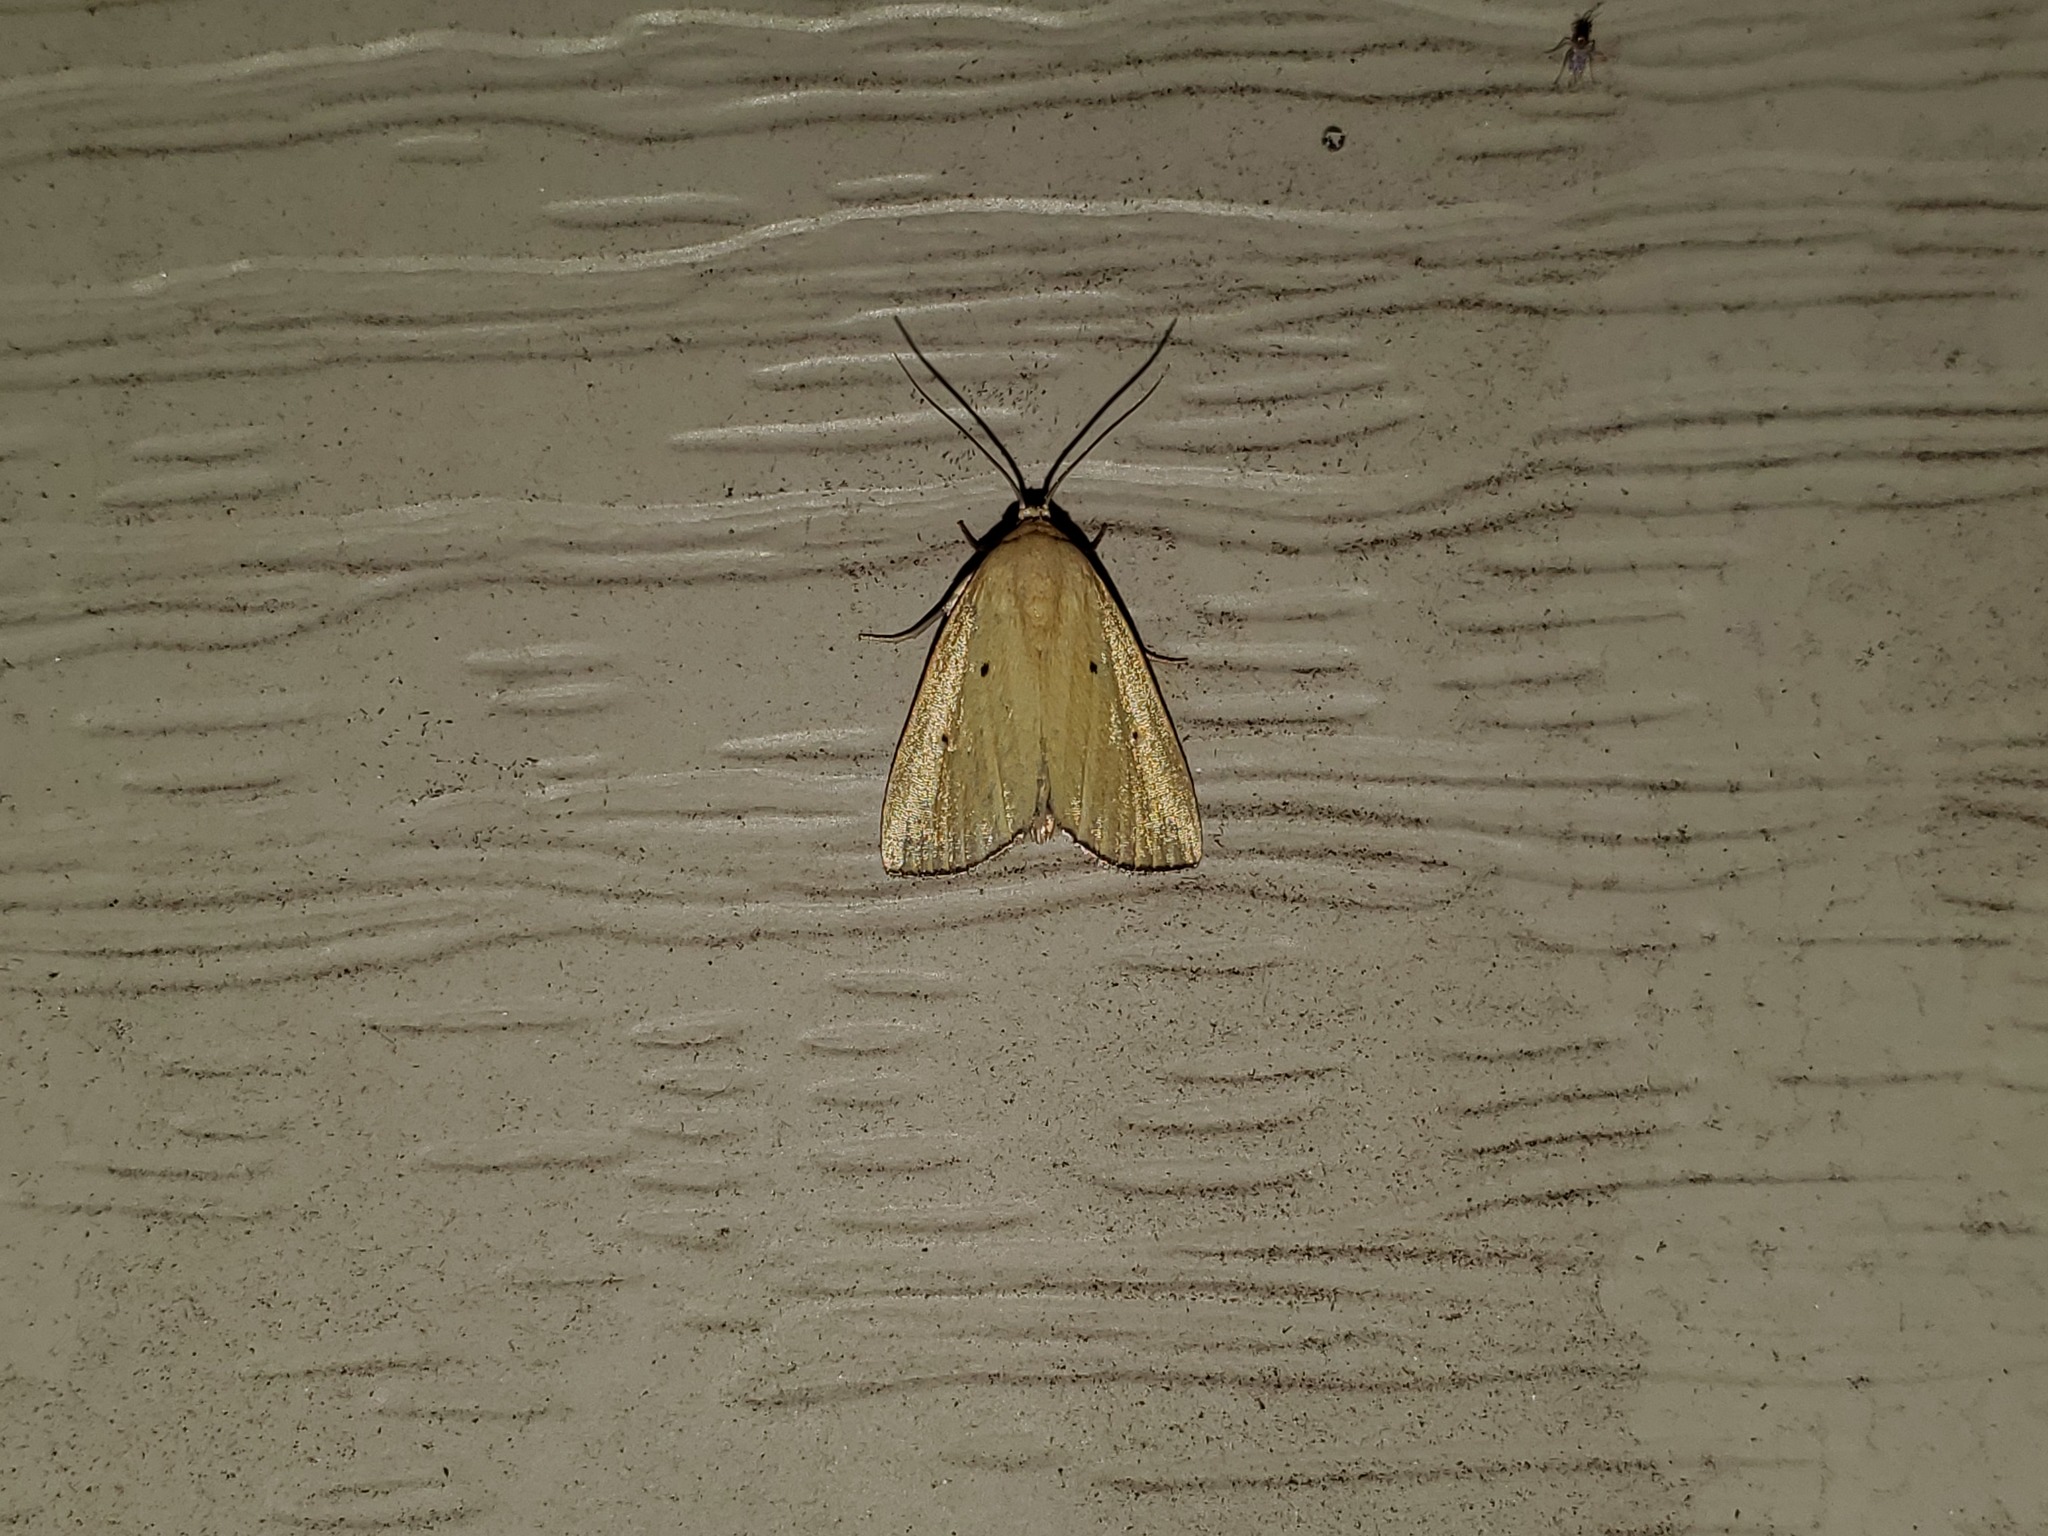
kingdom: Animalia
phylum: Arthropoda
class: Insecta
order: Lepidoptera
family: Noctuidae
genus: Marimatha
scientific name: Marimatha nigrofimbria
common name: Black-bordered lemon moth
